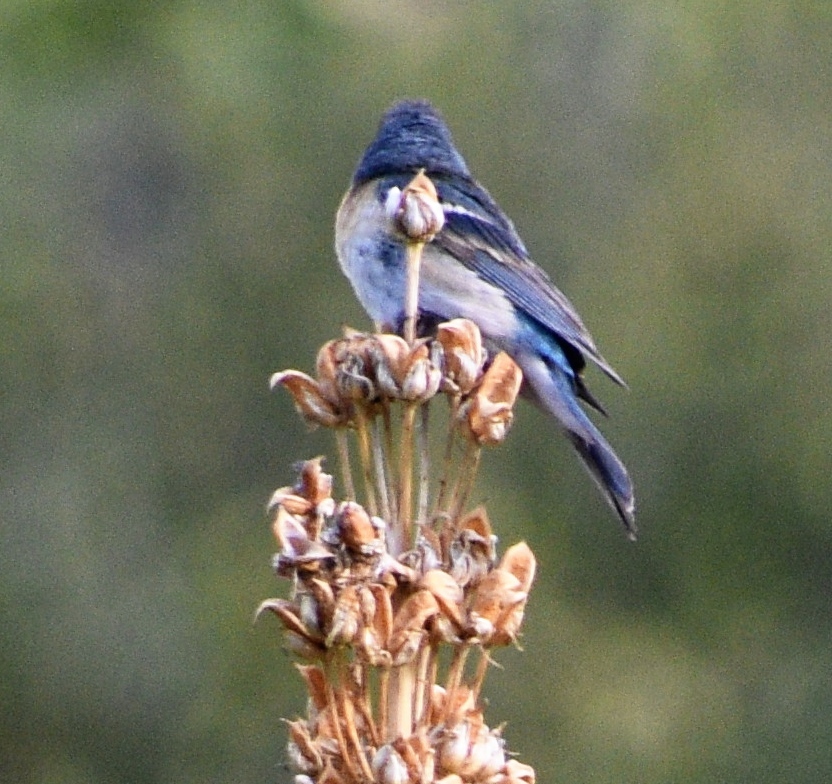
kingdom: Animalia
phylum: Chordata
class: Aves
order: Passeriformes
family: Cardinalidae
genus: Passerina
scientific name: Passerina amoena
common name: Lazuli bunting
